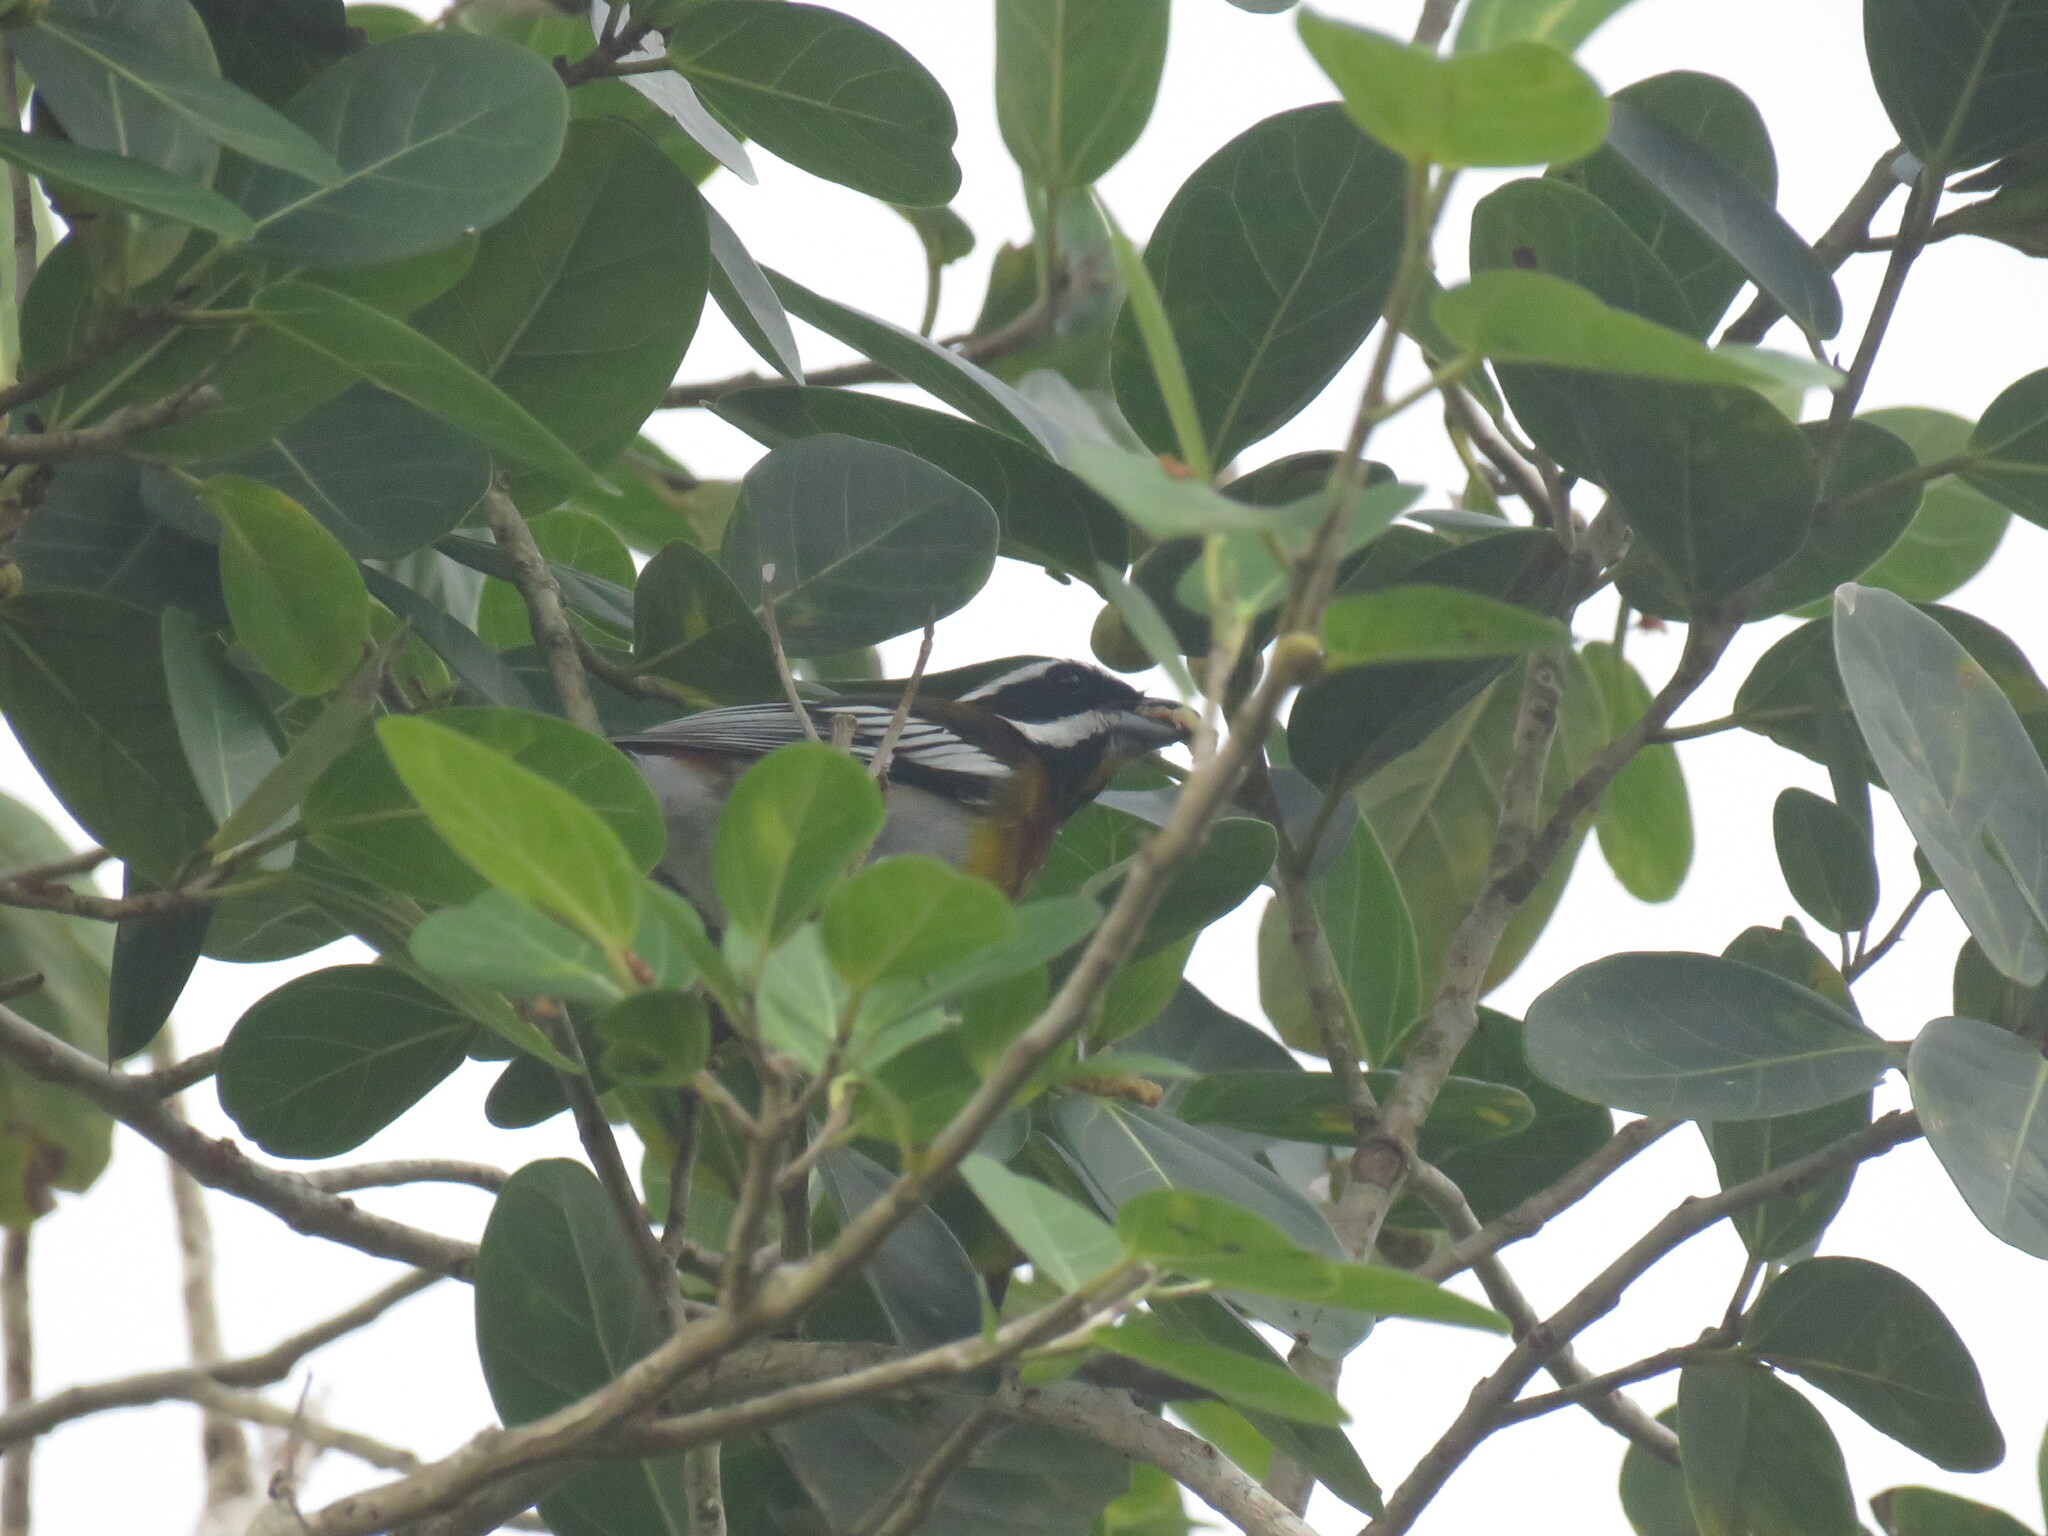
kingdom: Animalia
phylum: Chordata
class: Aves
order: Passeriformes
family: Spindalidae
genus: Spindalis
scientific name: Spindalis zena
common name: Western spindalis
